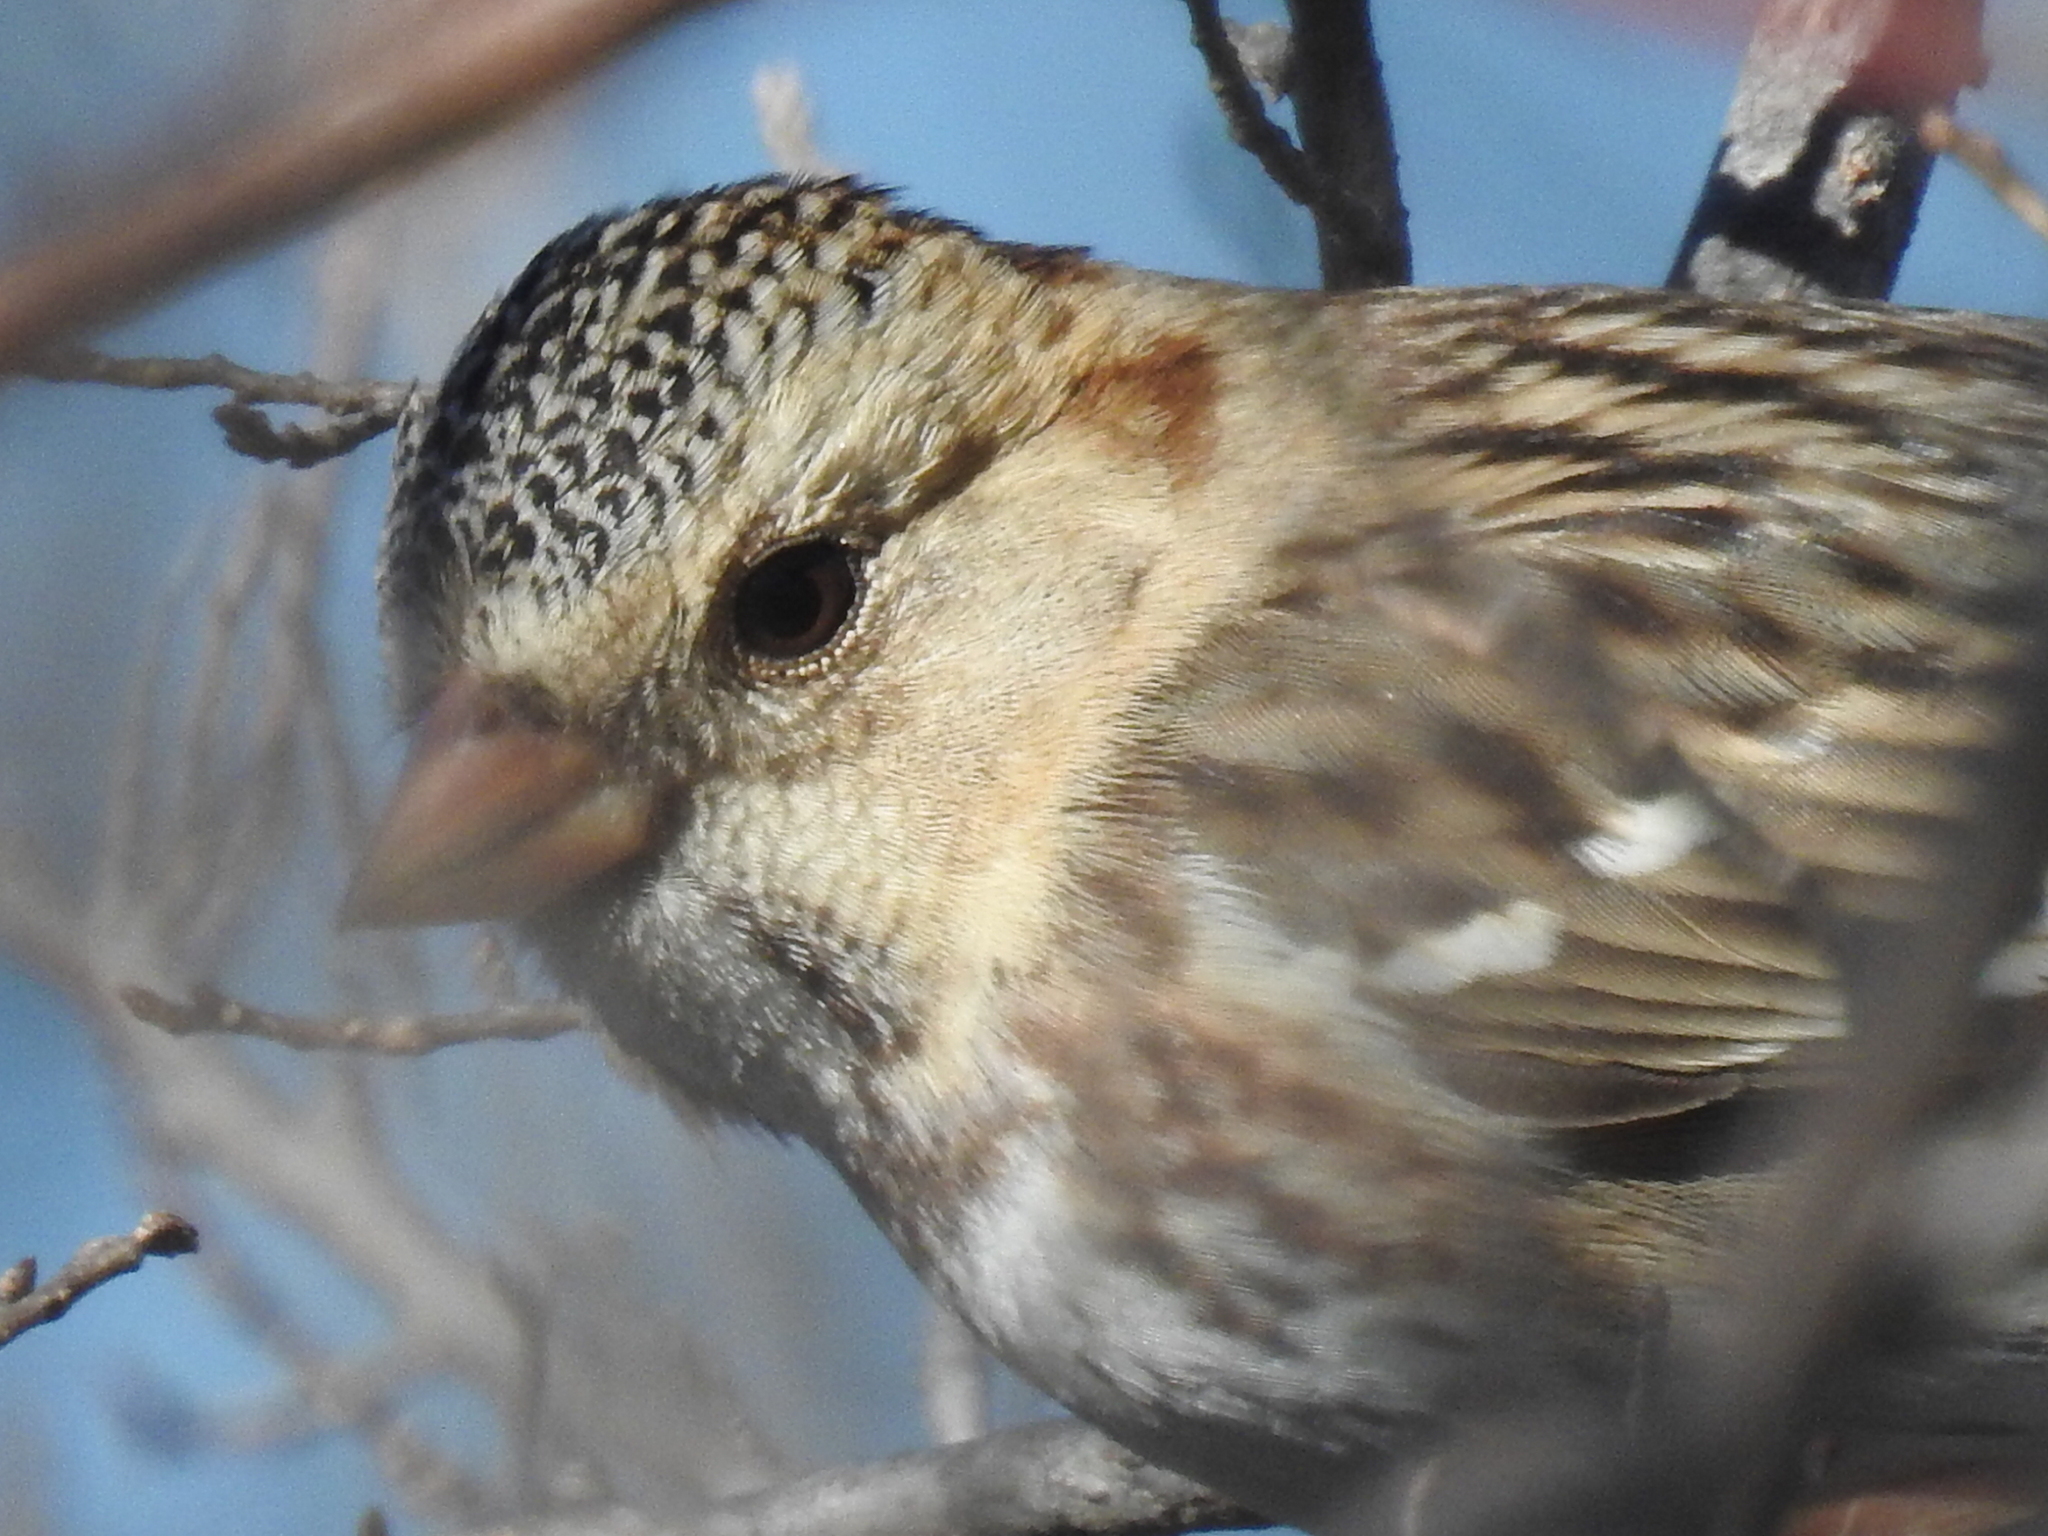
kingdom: Animalia
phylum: Chordata
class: Aves
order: Passeriformes
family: Passerellidae
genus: Zonotrichia
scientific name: Zonotrichia querula
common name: Harris's sparrow
